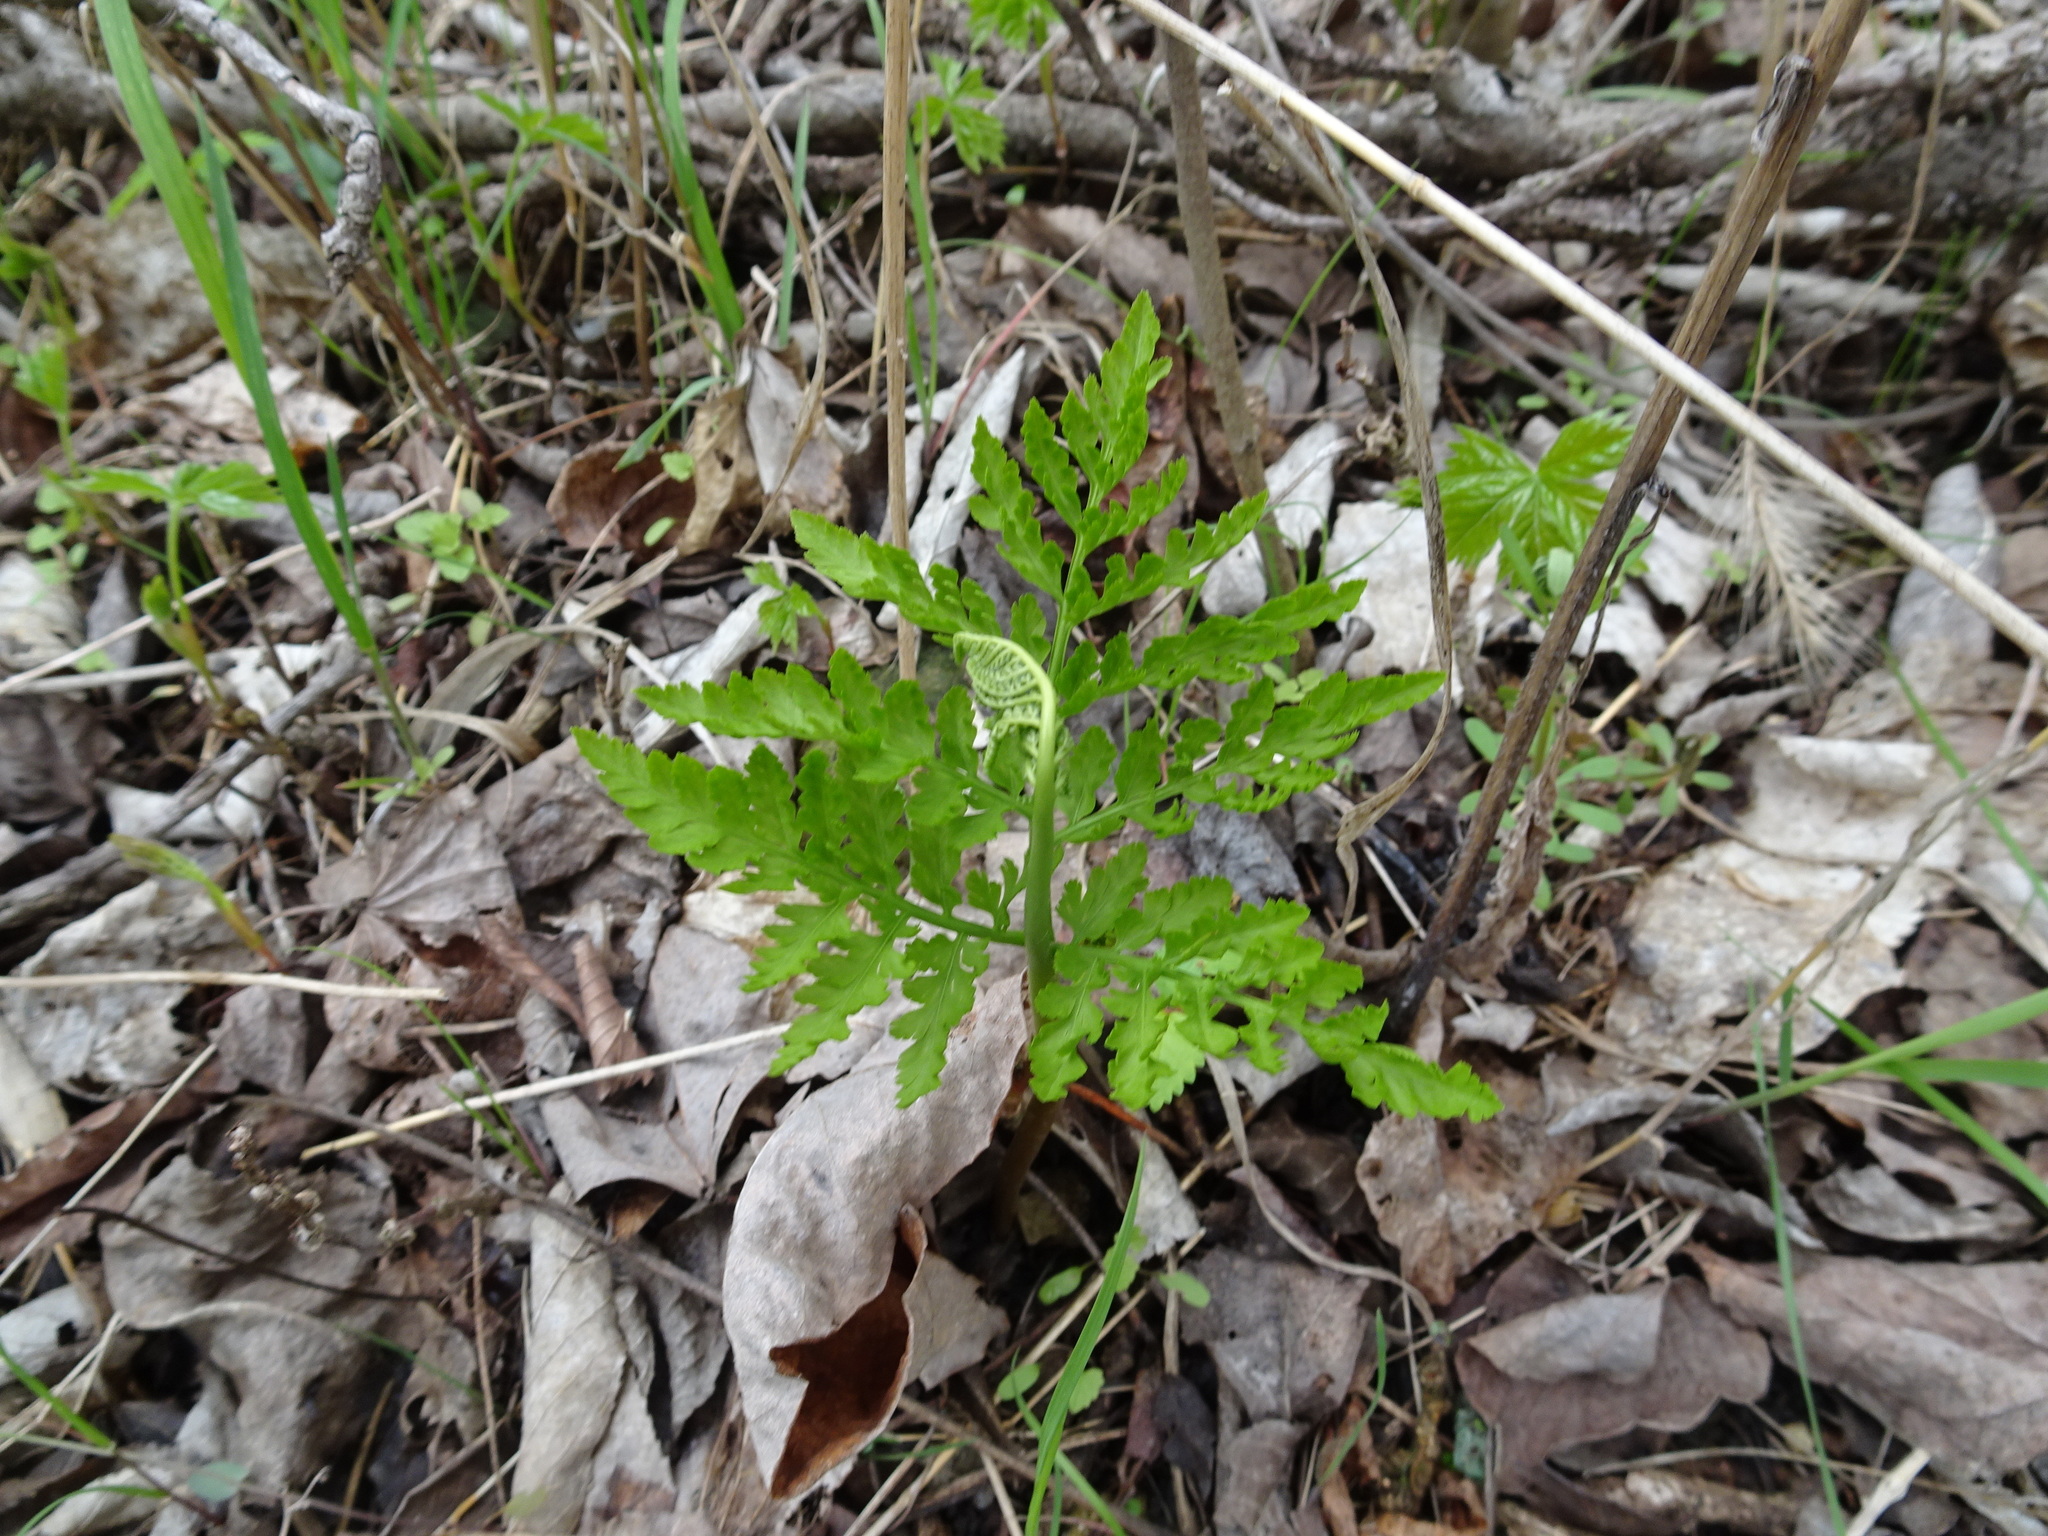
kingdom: Plantae
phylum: Tracheophyta
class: Polypodiopsida
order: Ophioglossales
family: Ophioglossaceae
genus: Botrypus
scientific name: Botrypus virginianus
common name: Common grapefern
